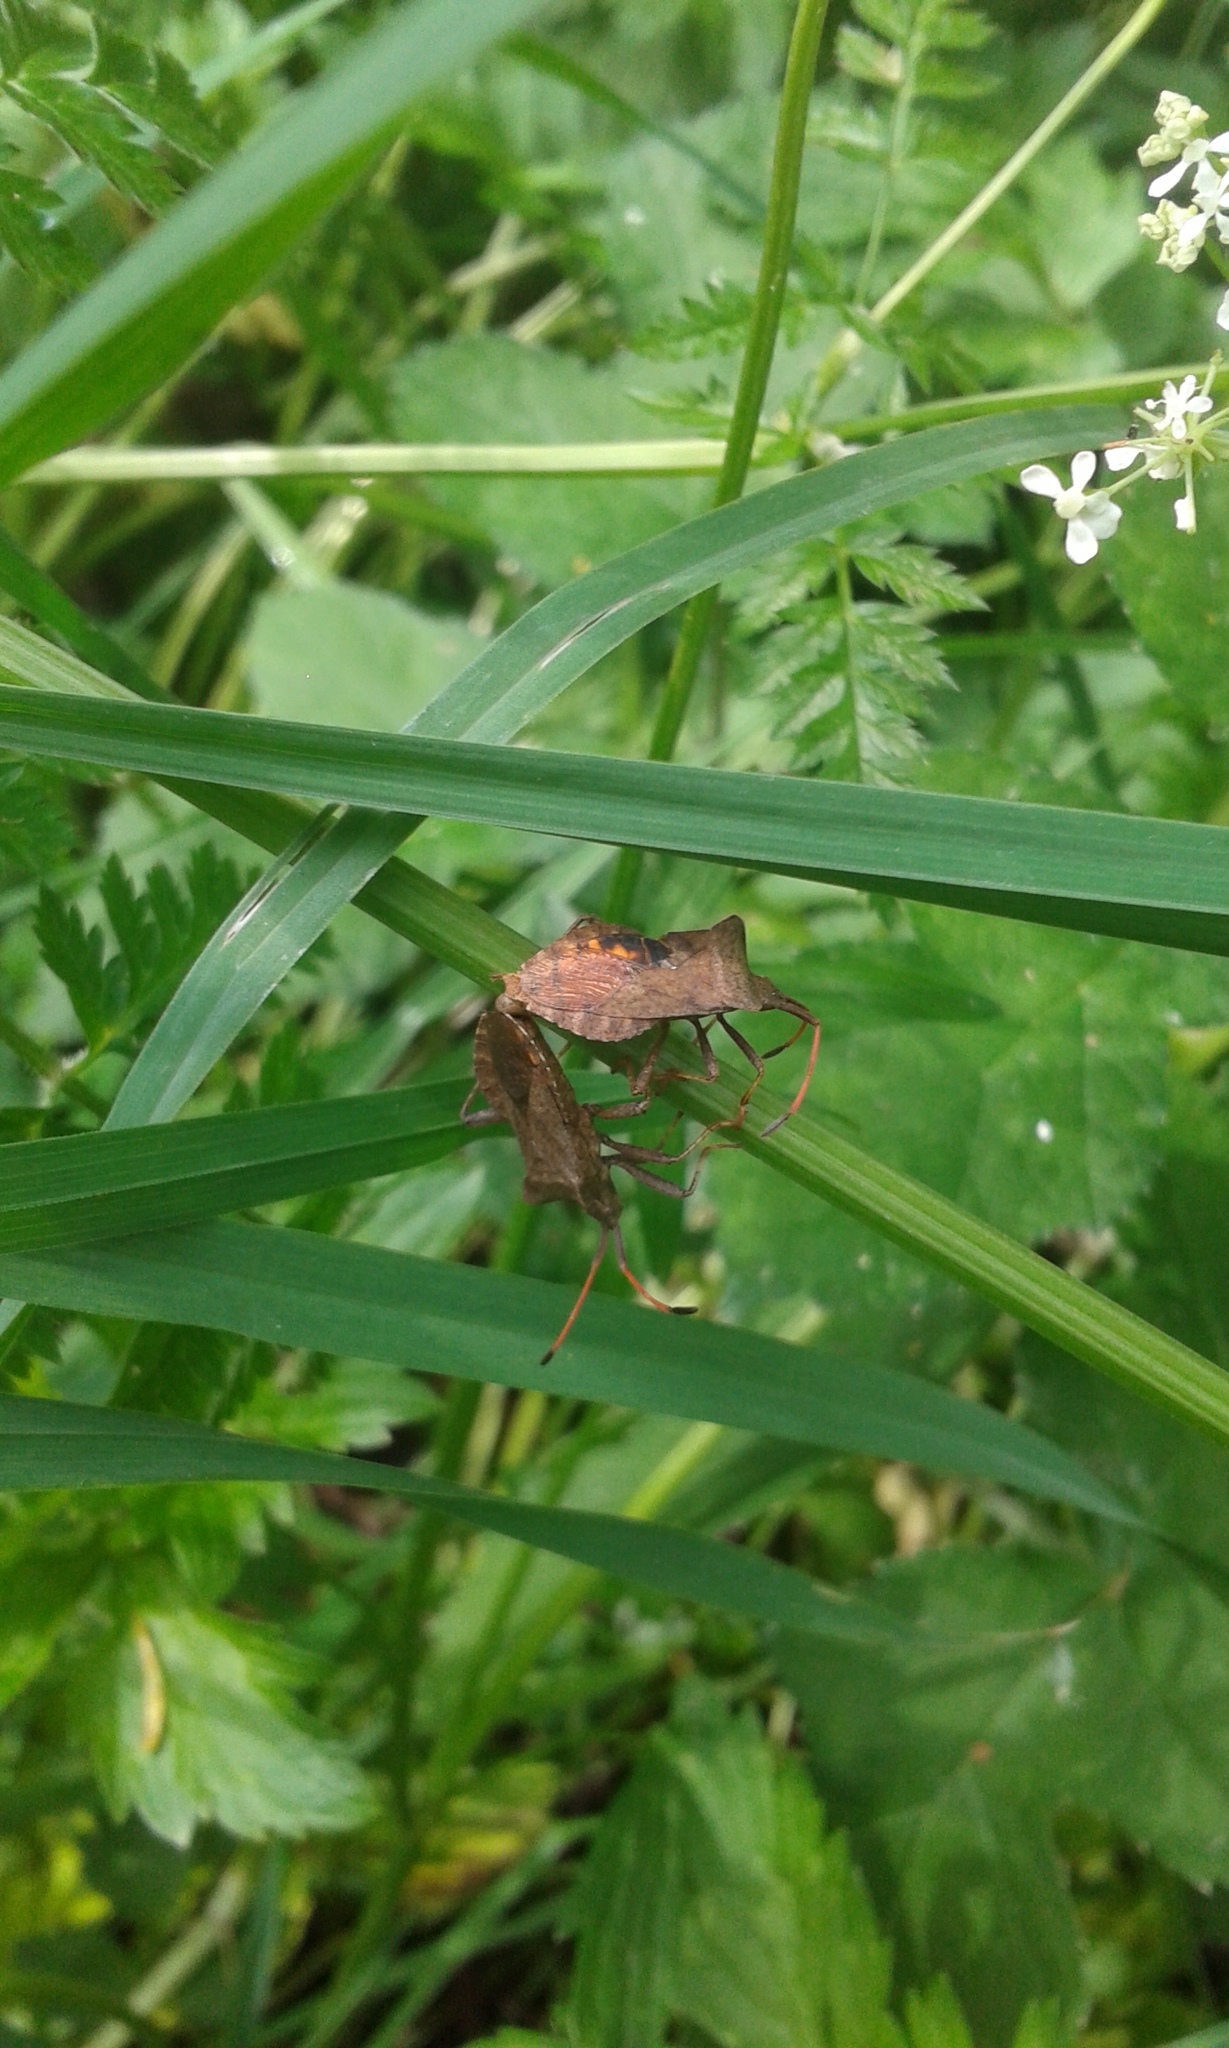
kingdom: Animalia
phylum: Arthropoda
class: Insecta
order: Hemiptera
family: Coreidae
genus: Coreus
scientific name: Coreus marginatus
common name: Dock bug
